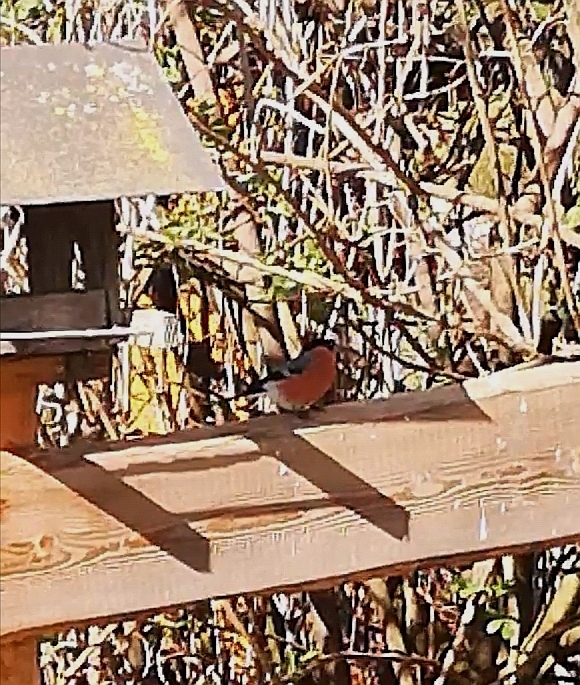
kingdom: Animalia
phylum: Chordata
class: Aves
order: Passeriformes
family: Fringillidae
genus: Pyrrhula
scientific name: Pyrrhula pyrrhula
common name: Eurasian bullfinch
